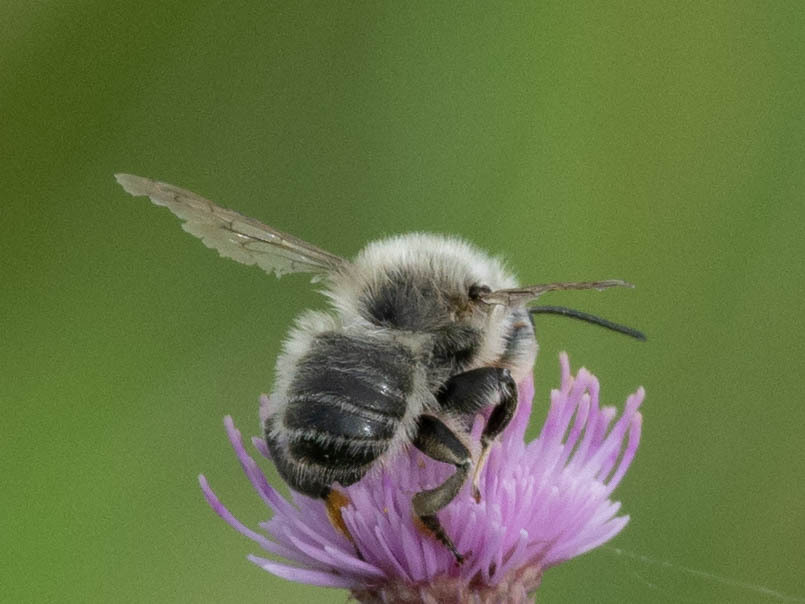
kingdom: Animalia
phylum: Arthropoda
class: Insecta
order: Hymenoptera
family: Megachilidae
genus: Megachile
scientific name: Megachile latimanus
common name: Leafcutting bee
